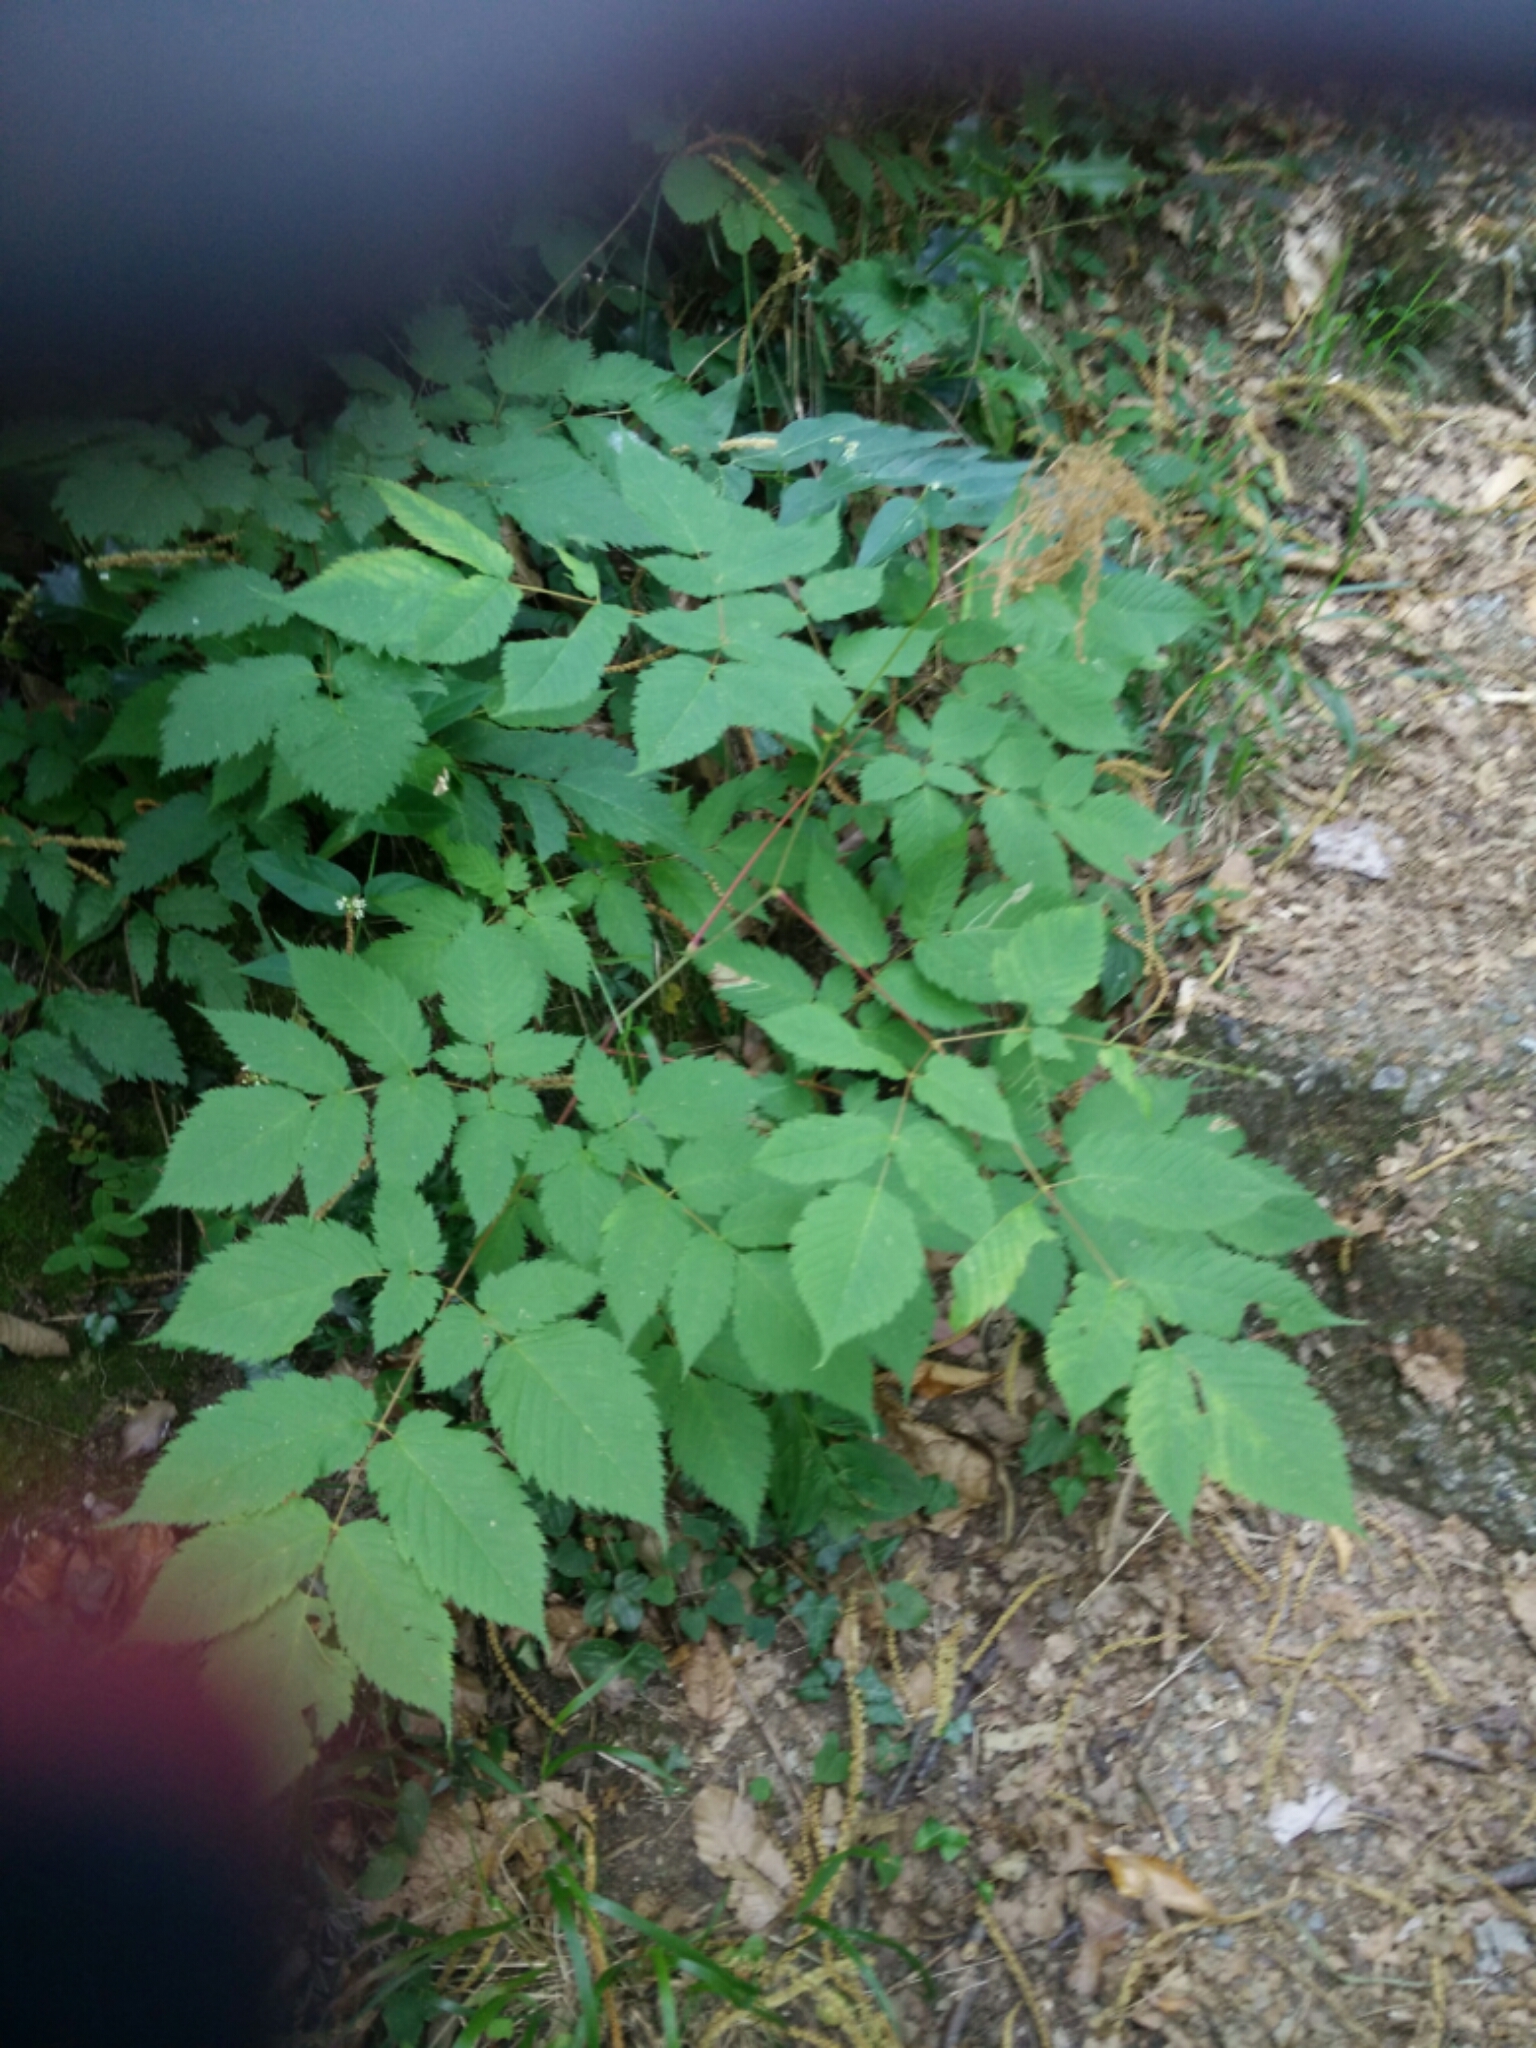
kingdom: Plantae
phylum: Tracheophyta
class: Magnoliopsida
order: Rosales
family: Rosaceae
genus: Aruncus
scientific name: Aruncus dioicus
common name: Buck's-beard
